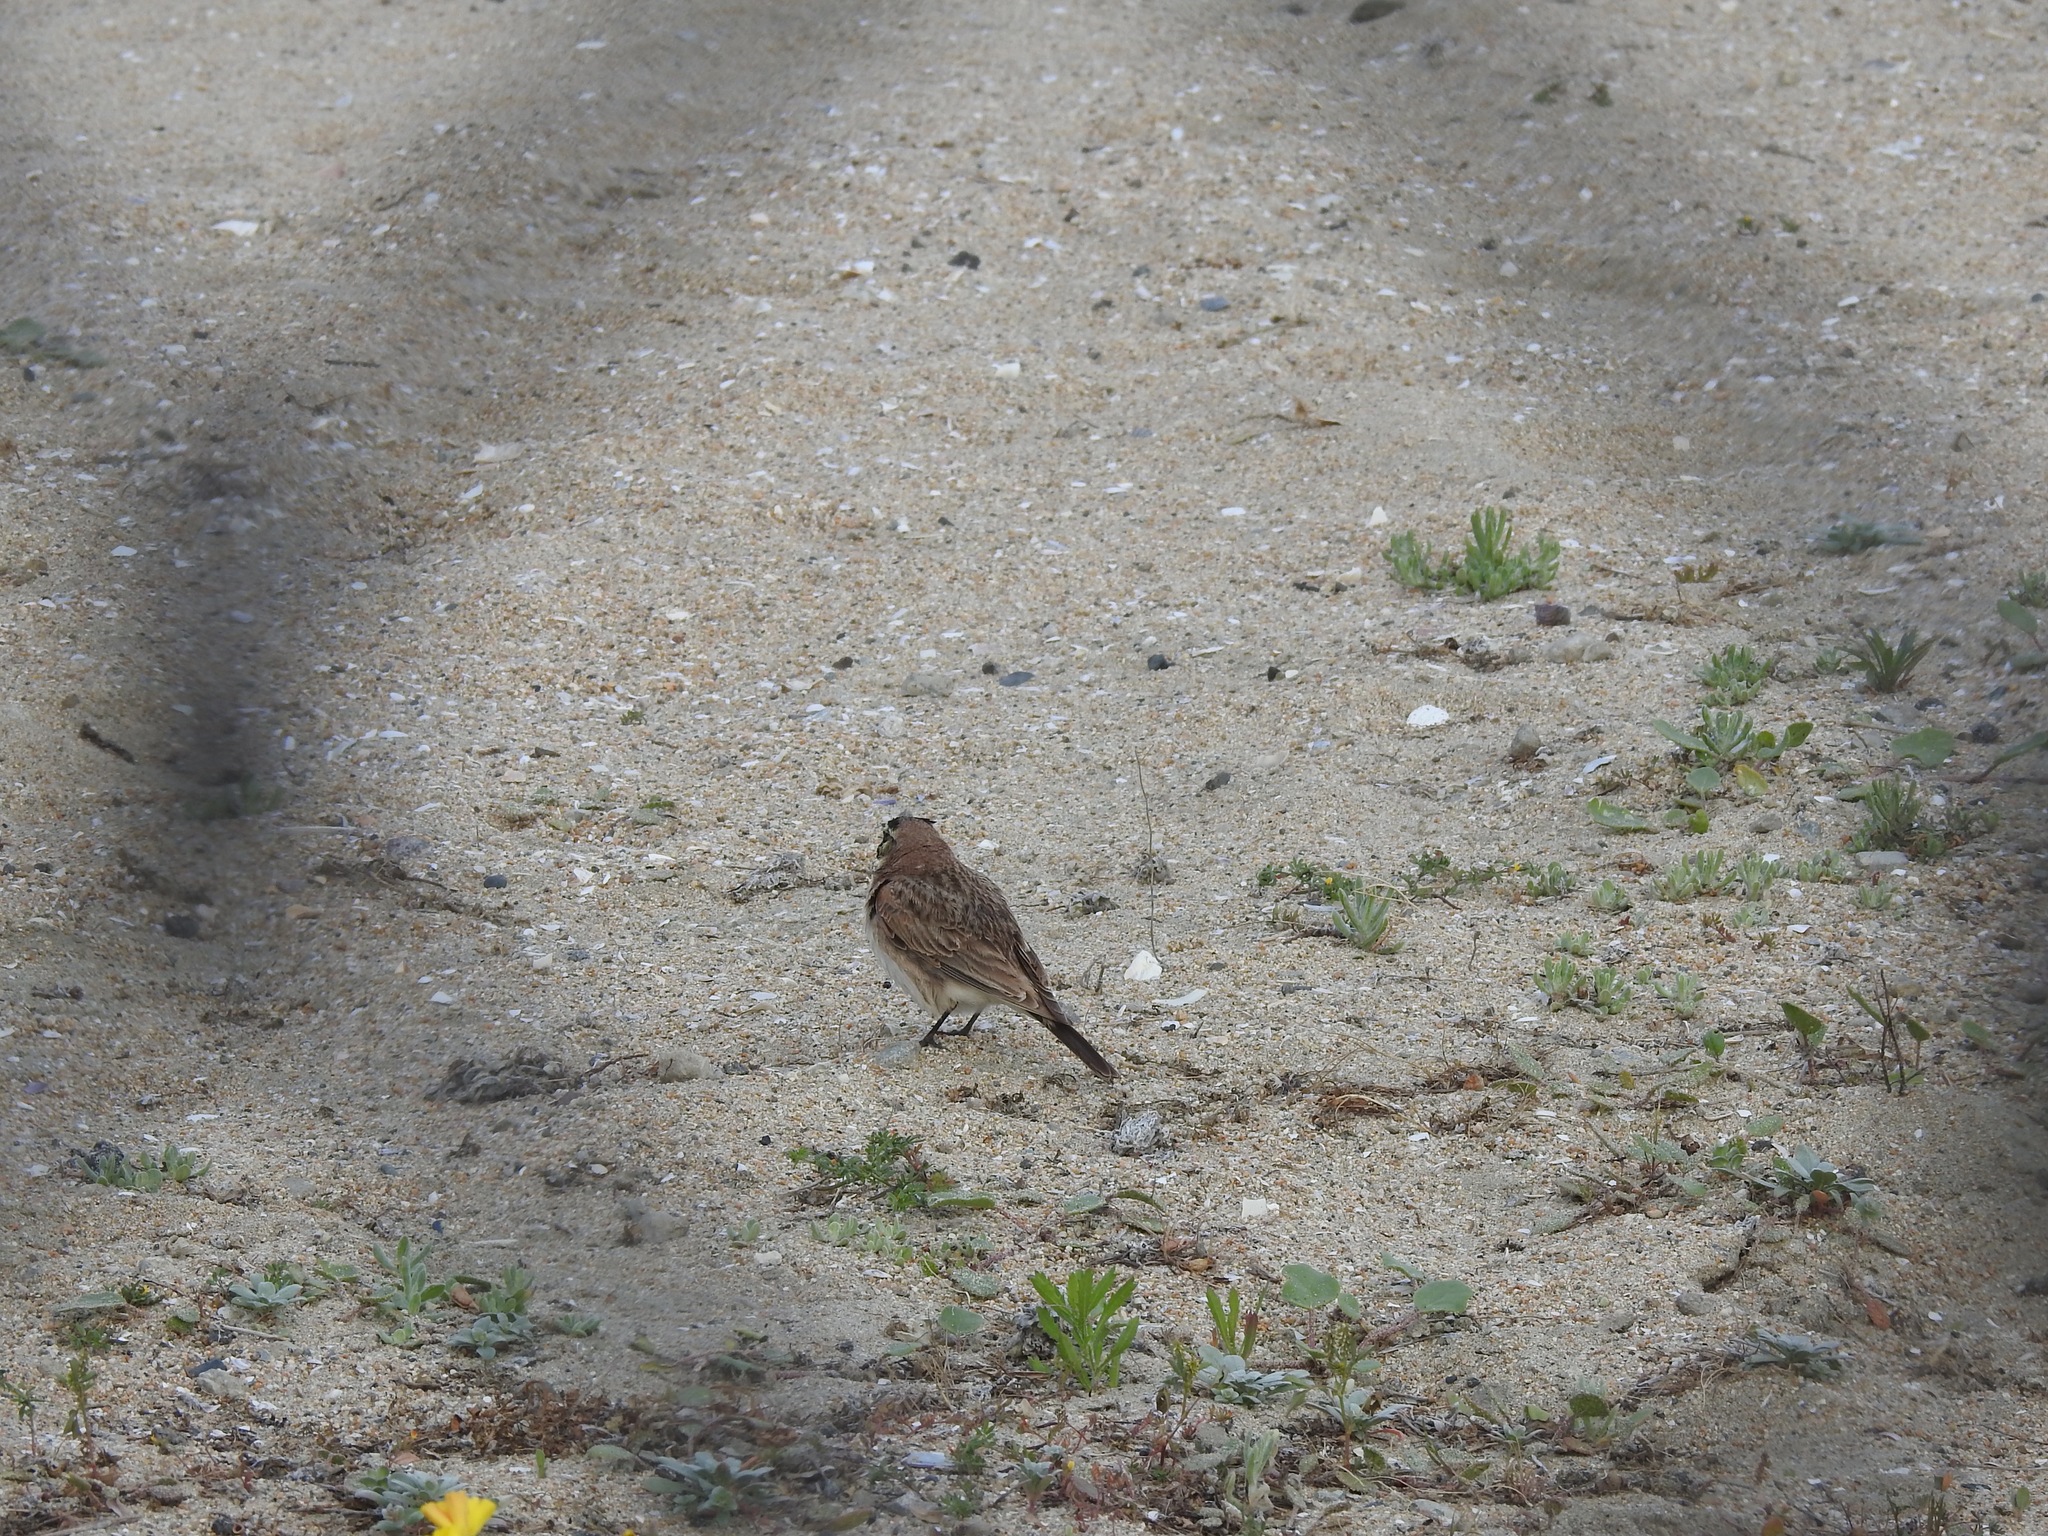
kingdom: Animalia
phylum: Chordata
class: Aves
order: Passeriformes
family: Alaudidae
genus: Eremophila
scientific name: Eremophila alpestris
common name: Horned lark
